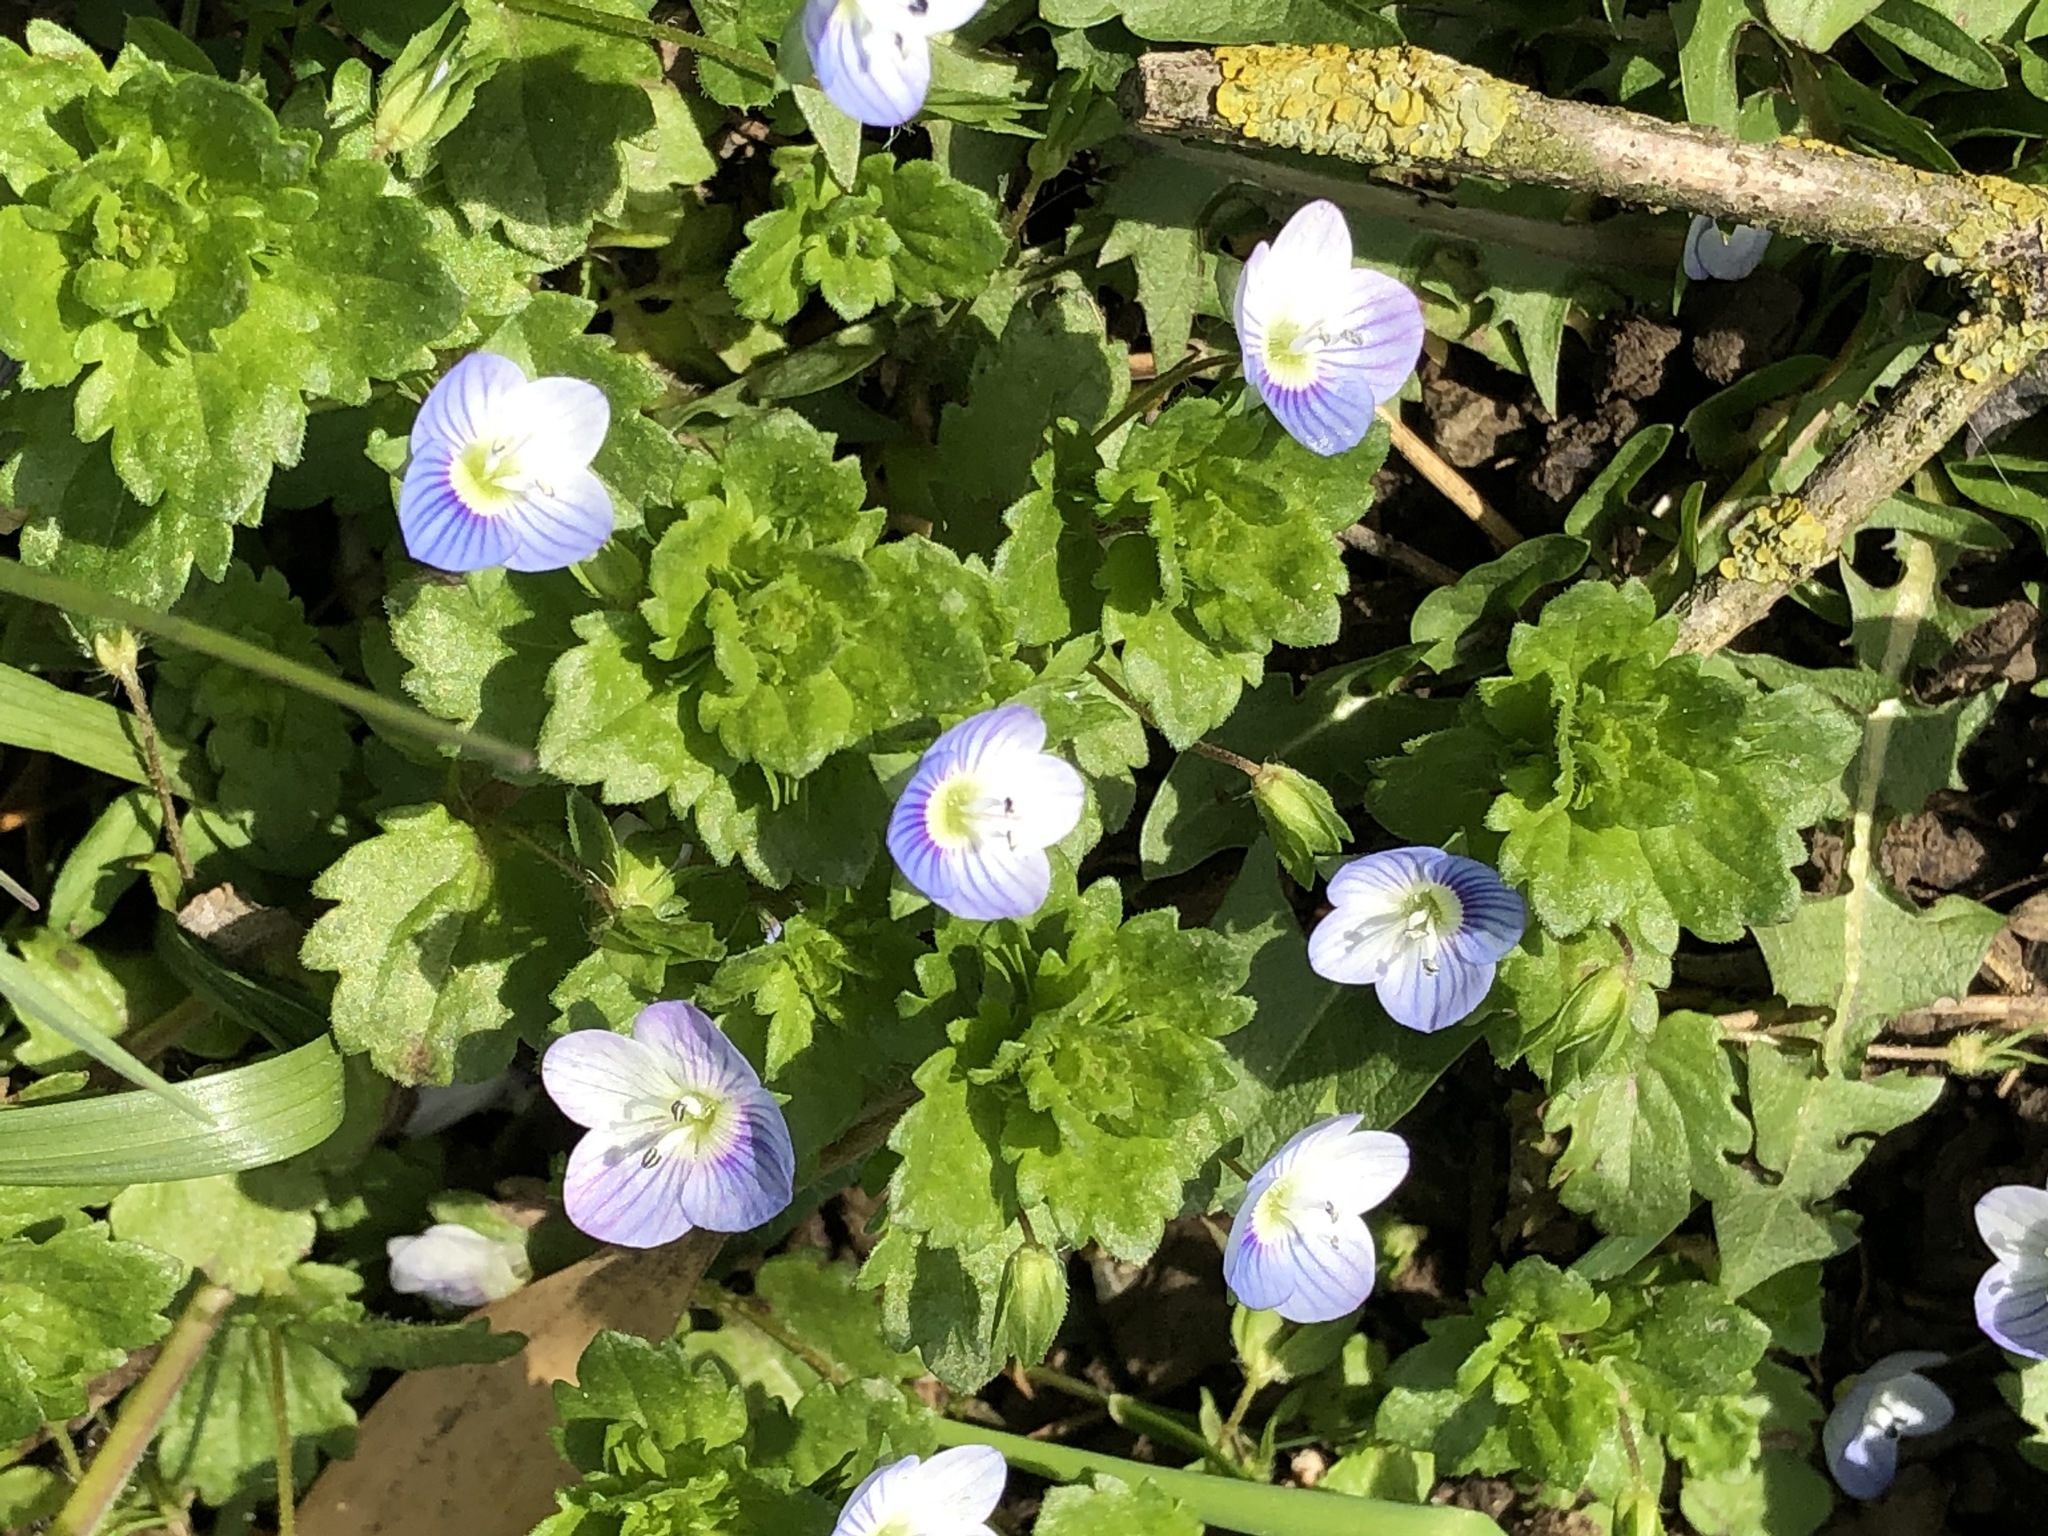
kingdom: Plantae
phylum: Tracheophyta
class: Magnoliopsida
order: Lamiales
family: Plantaginaceae
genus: Veronica
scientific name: Veronica persica
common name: Common field-speedwell
